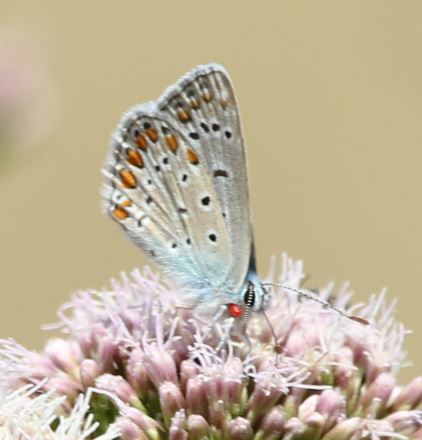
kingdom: Animalia
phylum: Arthropoda
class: Insecta
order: Lepidoptera
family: Lycaenidae
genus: Polyommatus
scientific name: Polyommatus icarus
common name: Common blue
